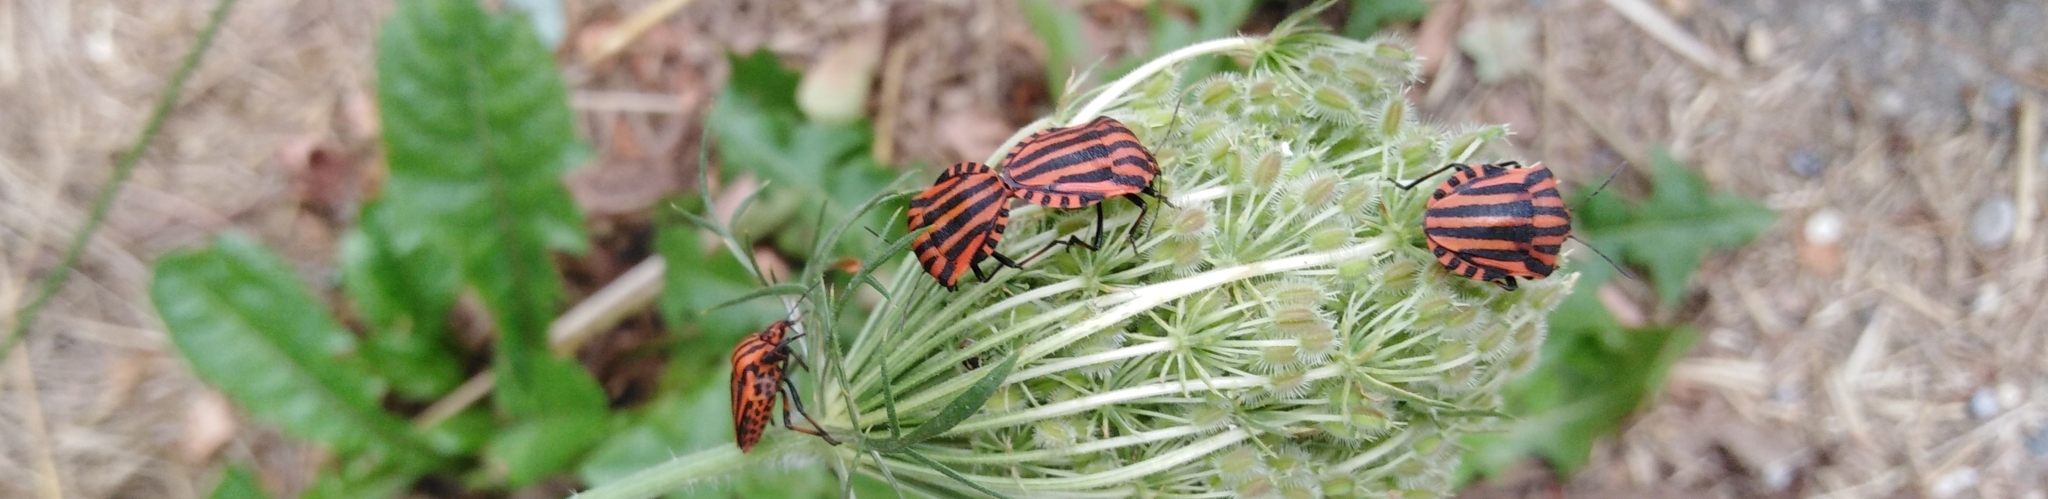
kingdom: Animalia
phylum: Arthropoda
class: Insecta
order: Hemiptera
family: Pentatomidae
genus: Graphosoma
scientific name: Graphosoma italicum
